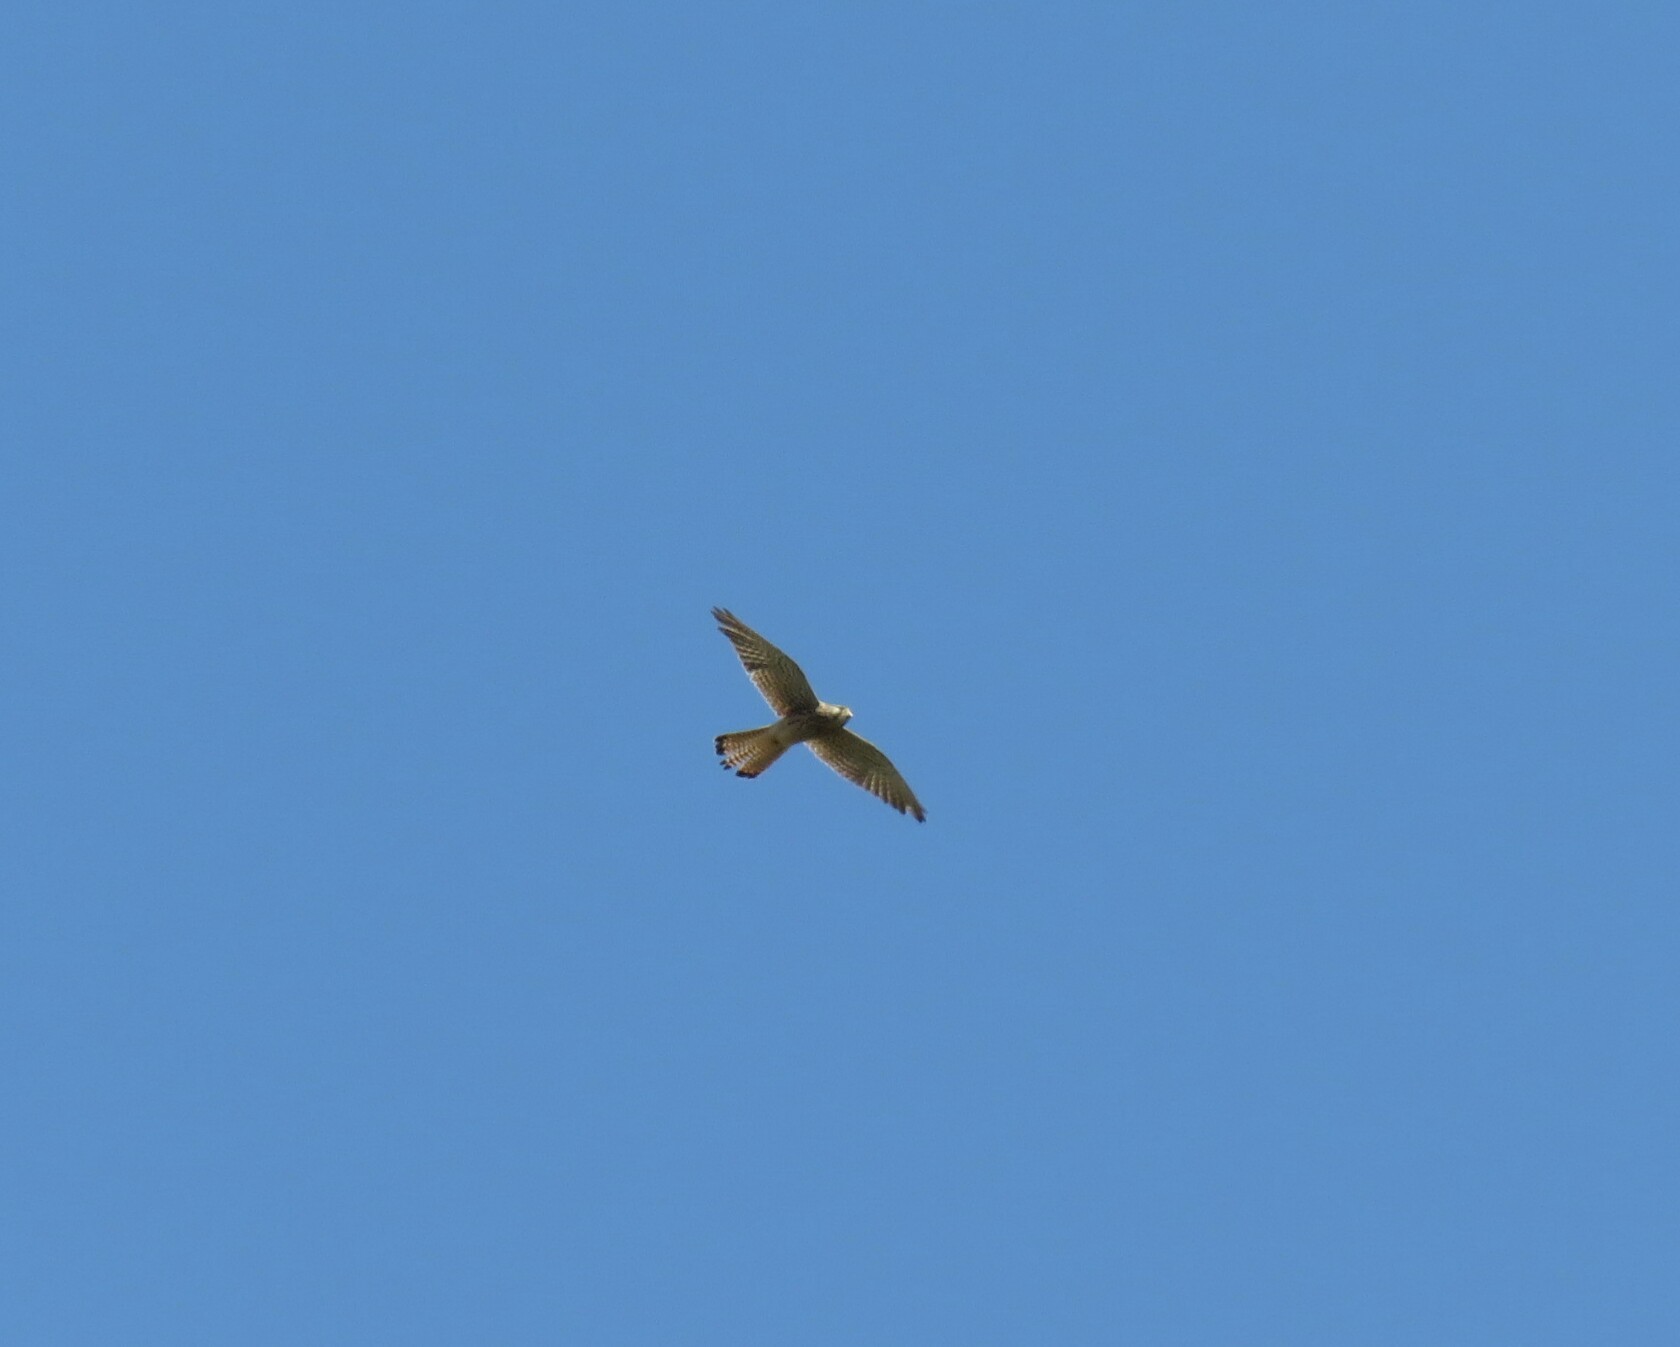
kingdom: Animalia
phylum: Chordata
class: Aves
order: Falconiformes
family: Falconidae
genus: Falco
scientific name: Falco tinnunculus
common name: Common kestrel
